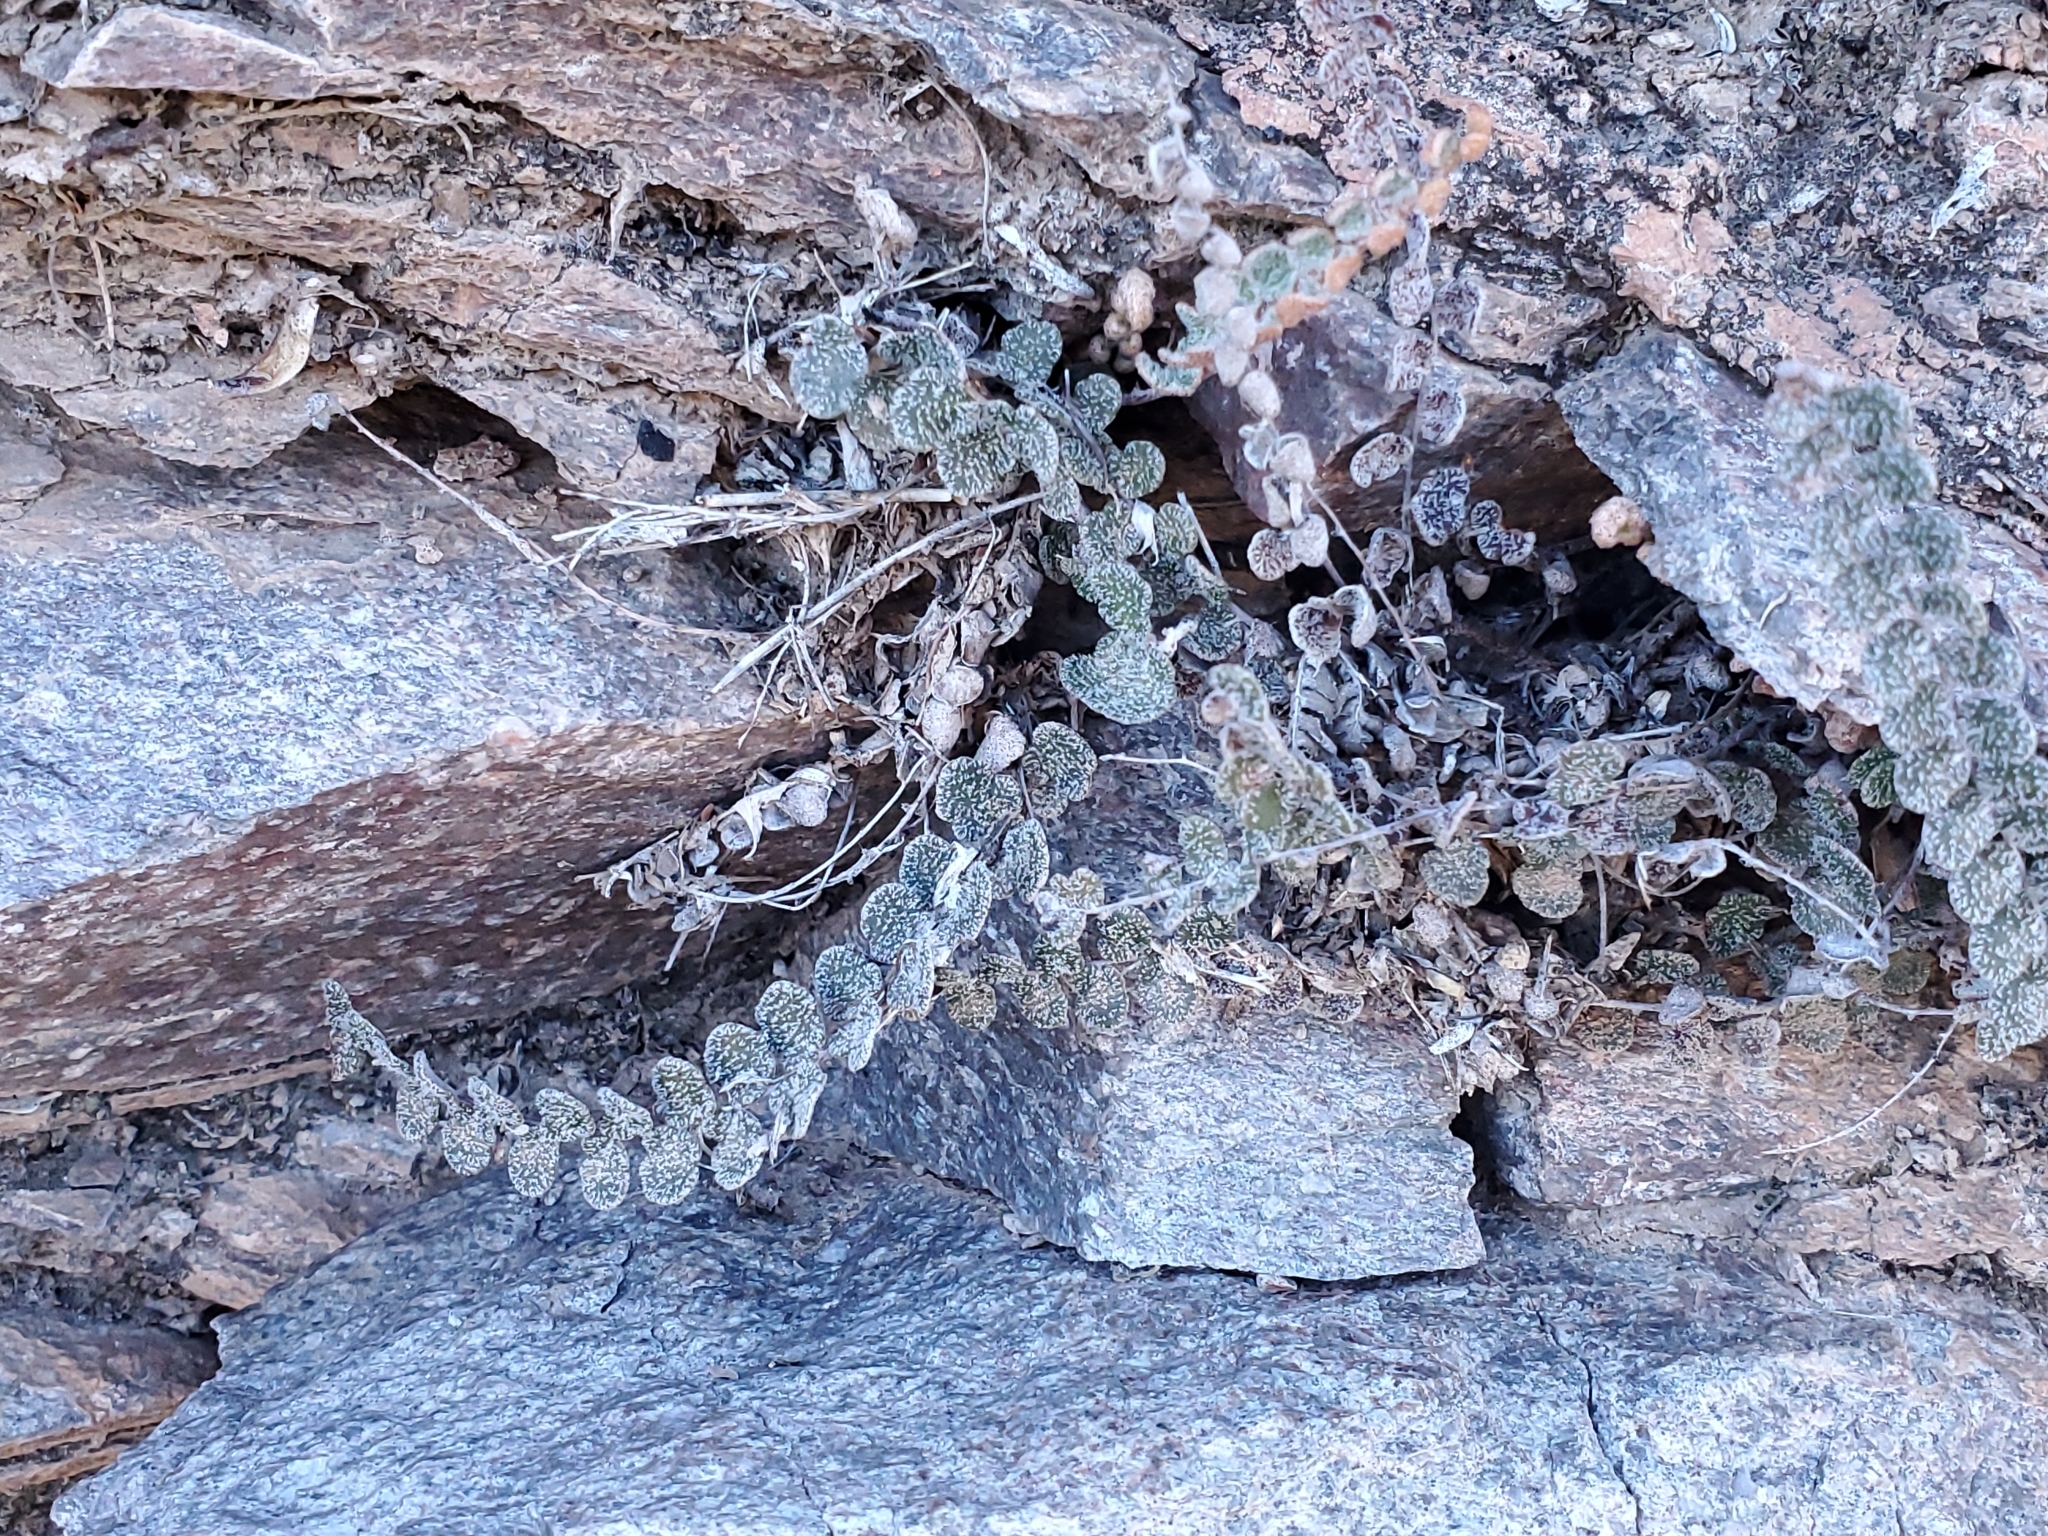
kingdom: Plantae
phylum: Tracheophyta
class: Polypodiopsida
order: Polypodiales
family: Pteridaceae
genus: Astrolepis
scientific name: Astrolepis cochisensis
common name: Scaly cloak fern
